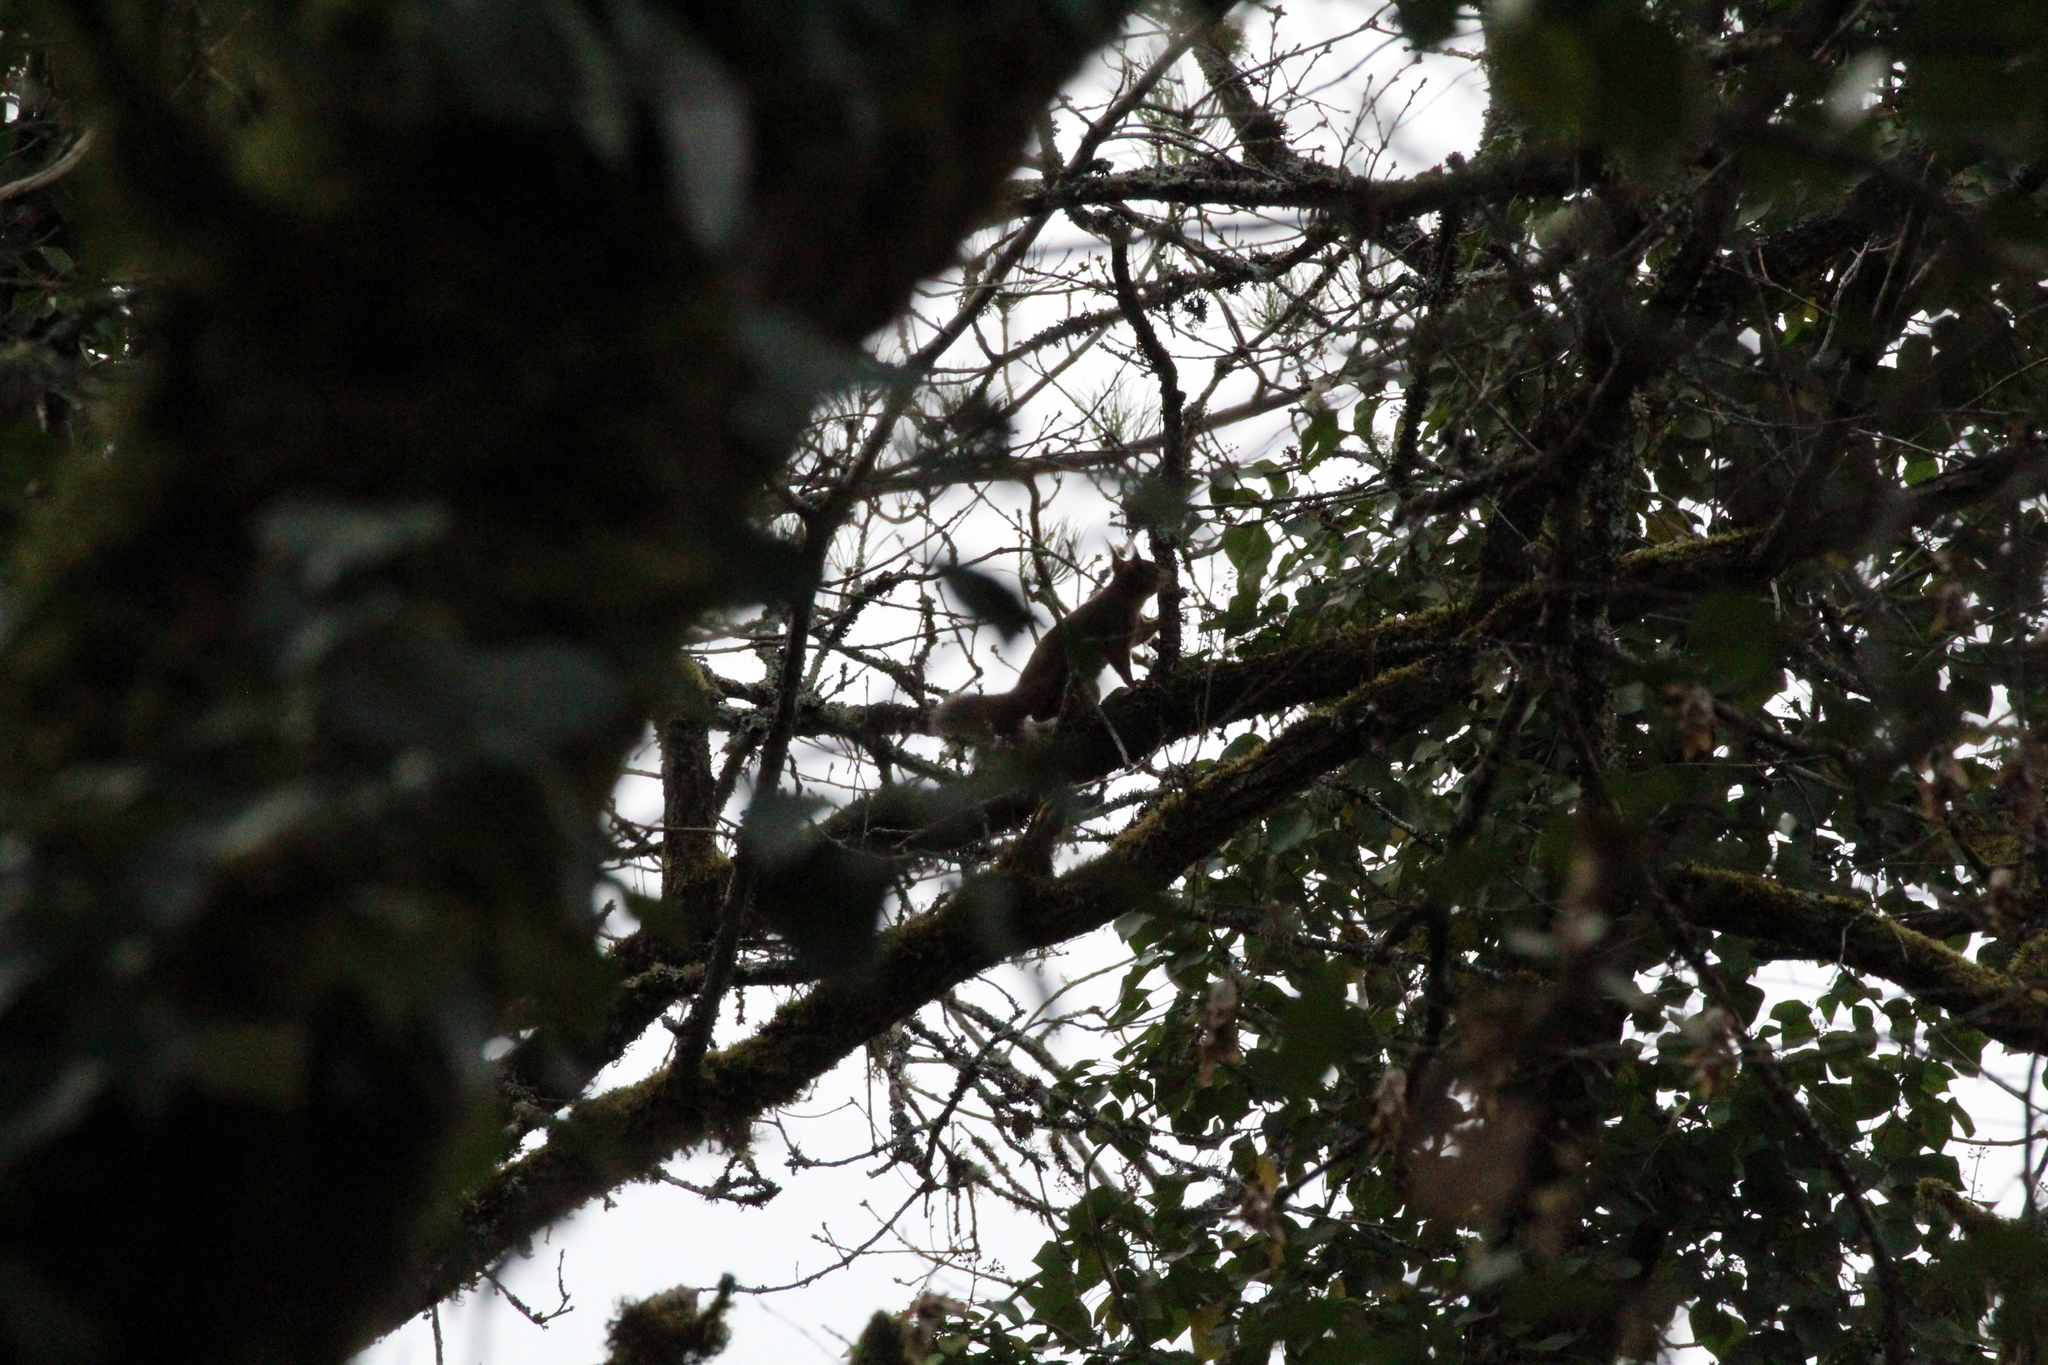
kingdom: Animalia
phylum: Chordata
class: Mammalia
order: Rodentia
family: Sciuridae
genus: Sciurus
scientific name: Sciurus vulgaris
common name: Eurasian red squirrel
